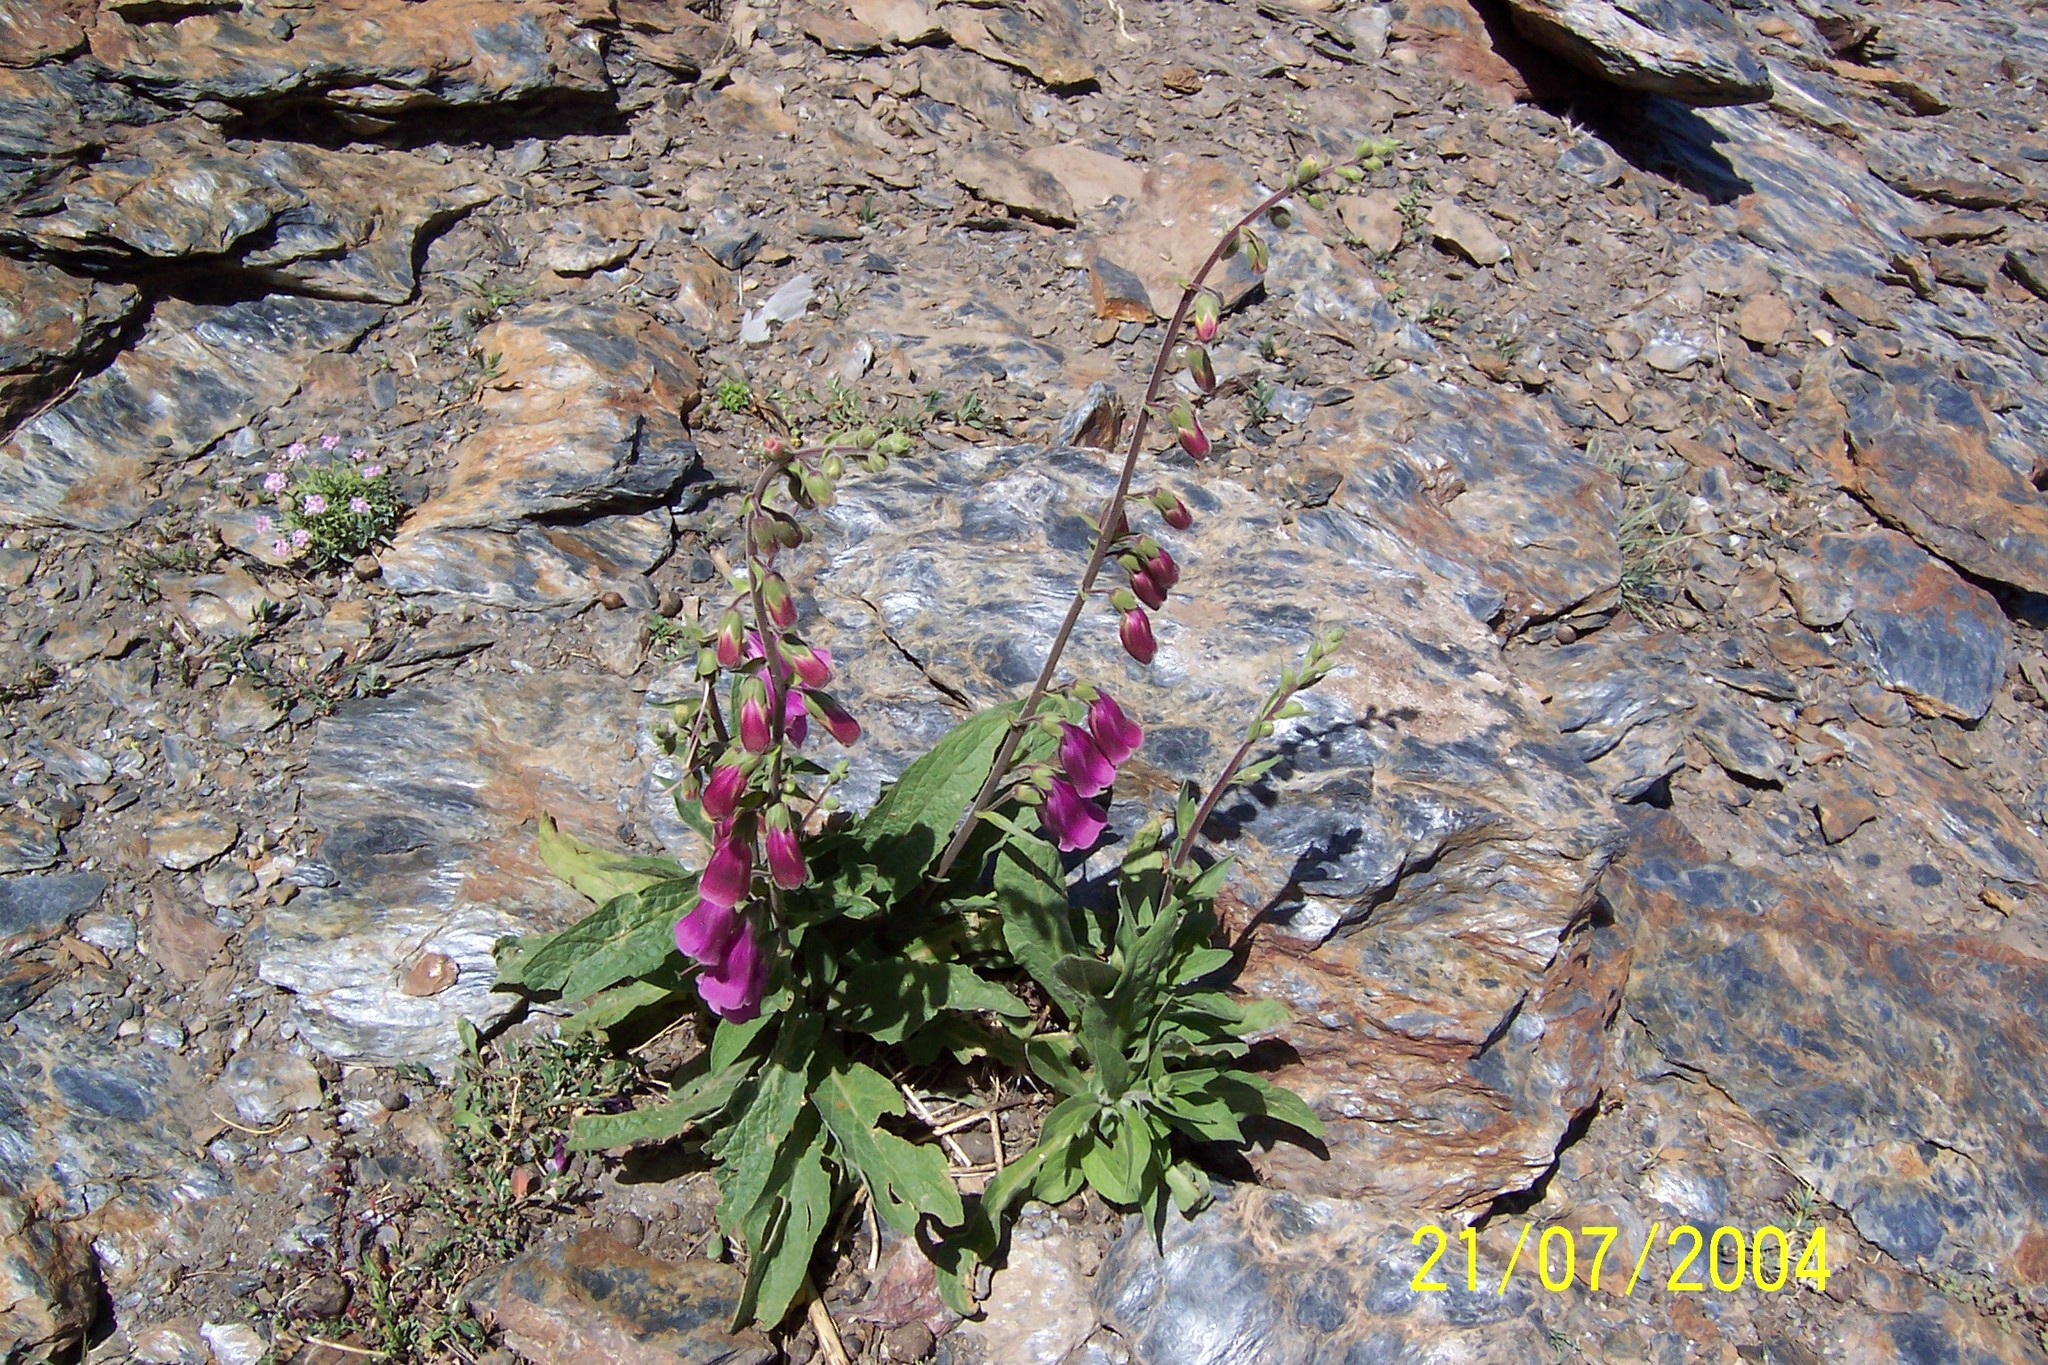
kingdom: Plantae
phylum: Tracheophyta
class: Magnoliopsida
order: Lamiales
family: Plantaginaceae
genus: Digitalis
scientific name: Digitalis purpurea
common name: Foxglove
